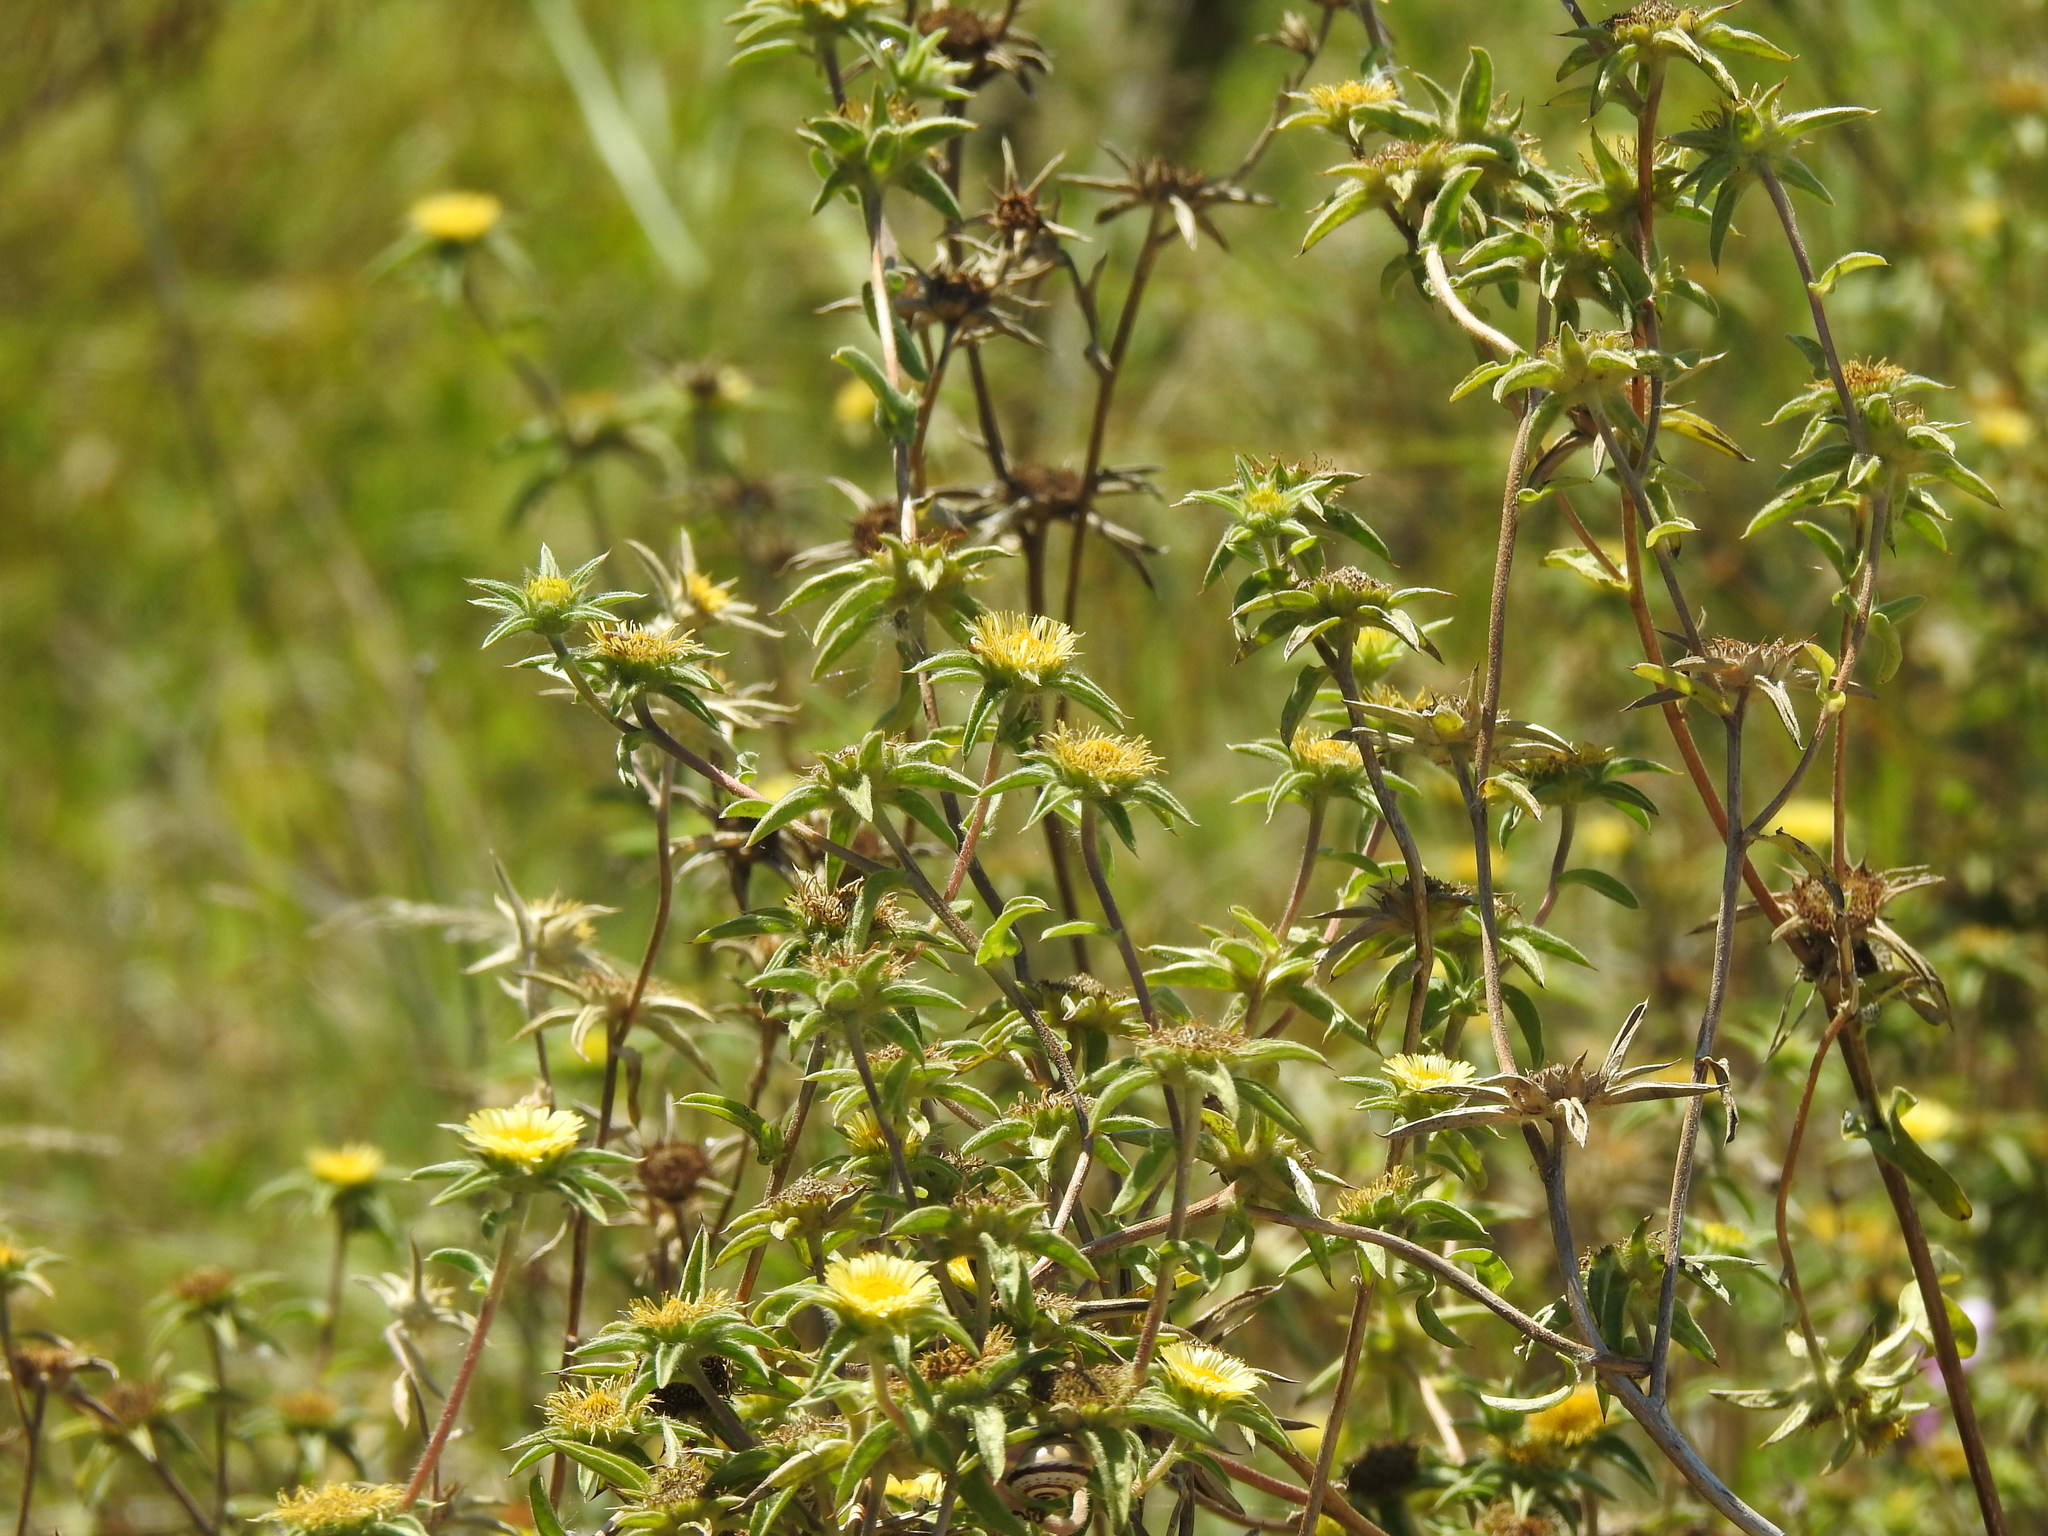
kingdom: Plantae
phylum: Tracheophyta
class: Magnoliopsida
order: Asterales
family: Asteraceae
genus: Pallenis
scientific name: Pallenis spinosa
